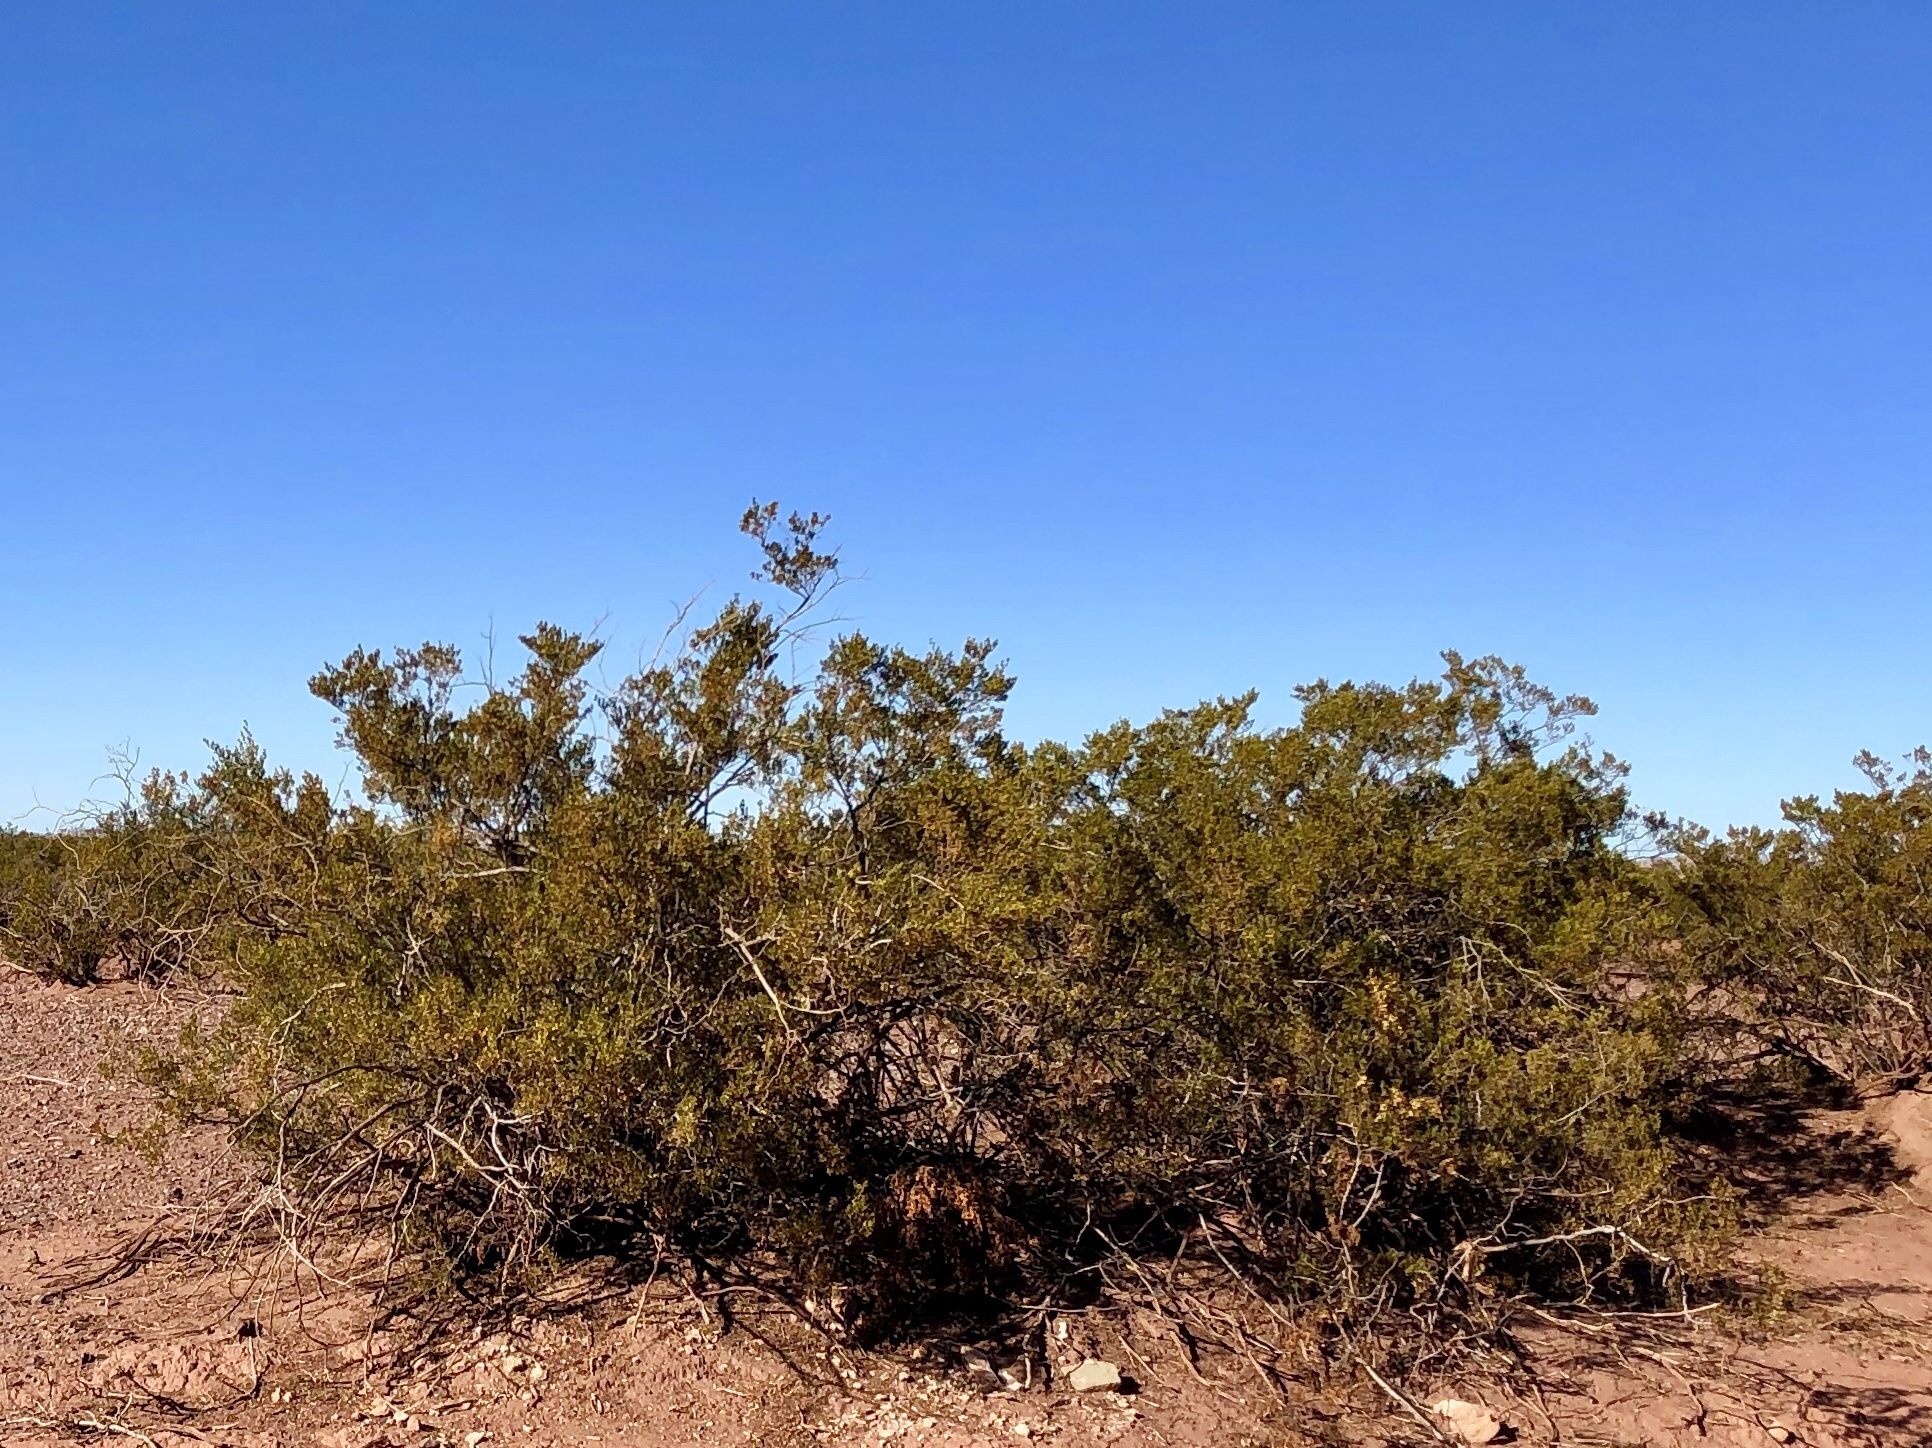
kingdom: Plantae
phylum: Tracheophyta
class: Magnoliopsida
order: Zygophyllales
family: Zygophyllaceae
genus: Larrea
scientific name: Larrea tridentata
